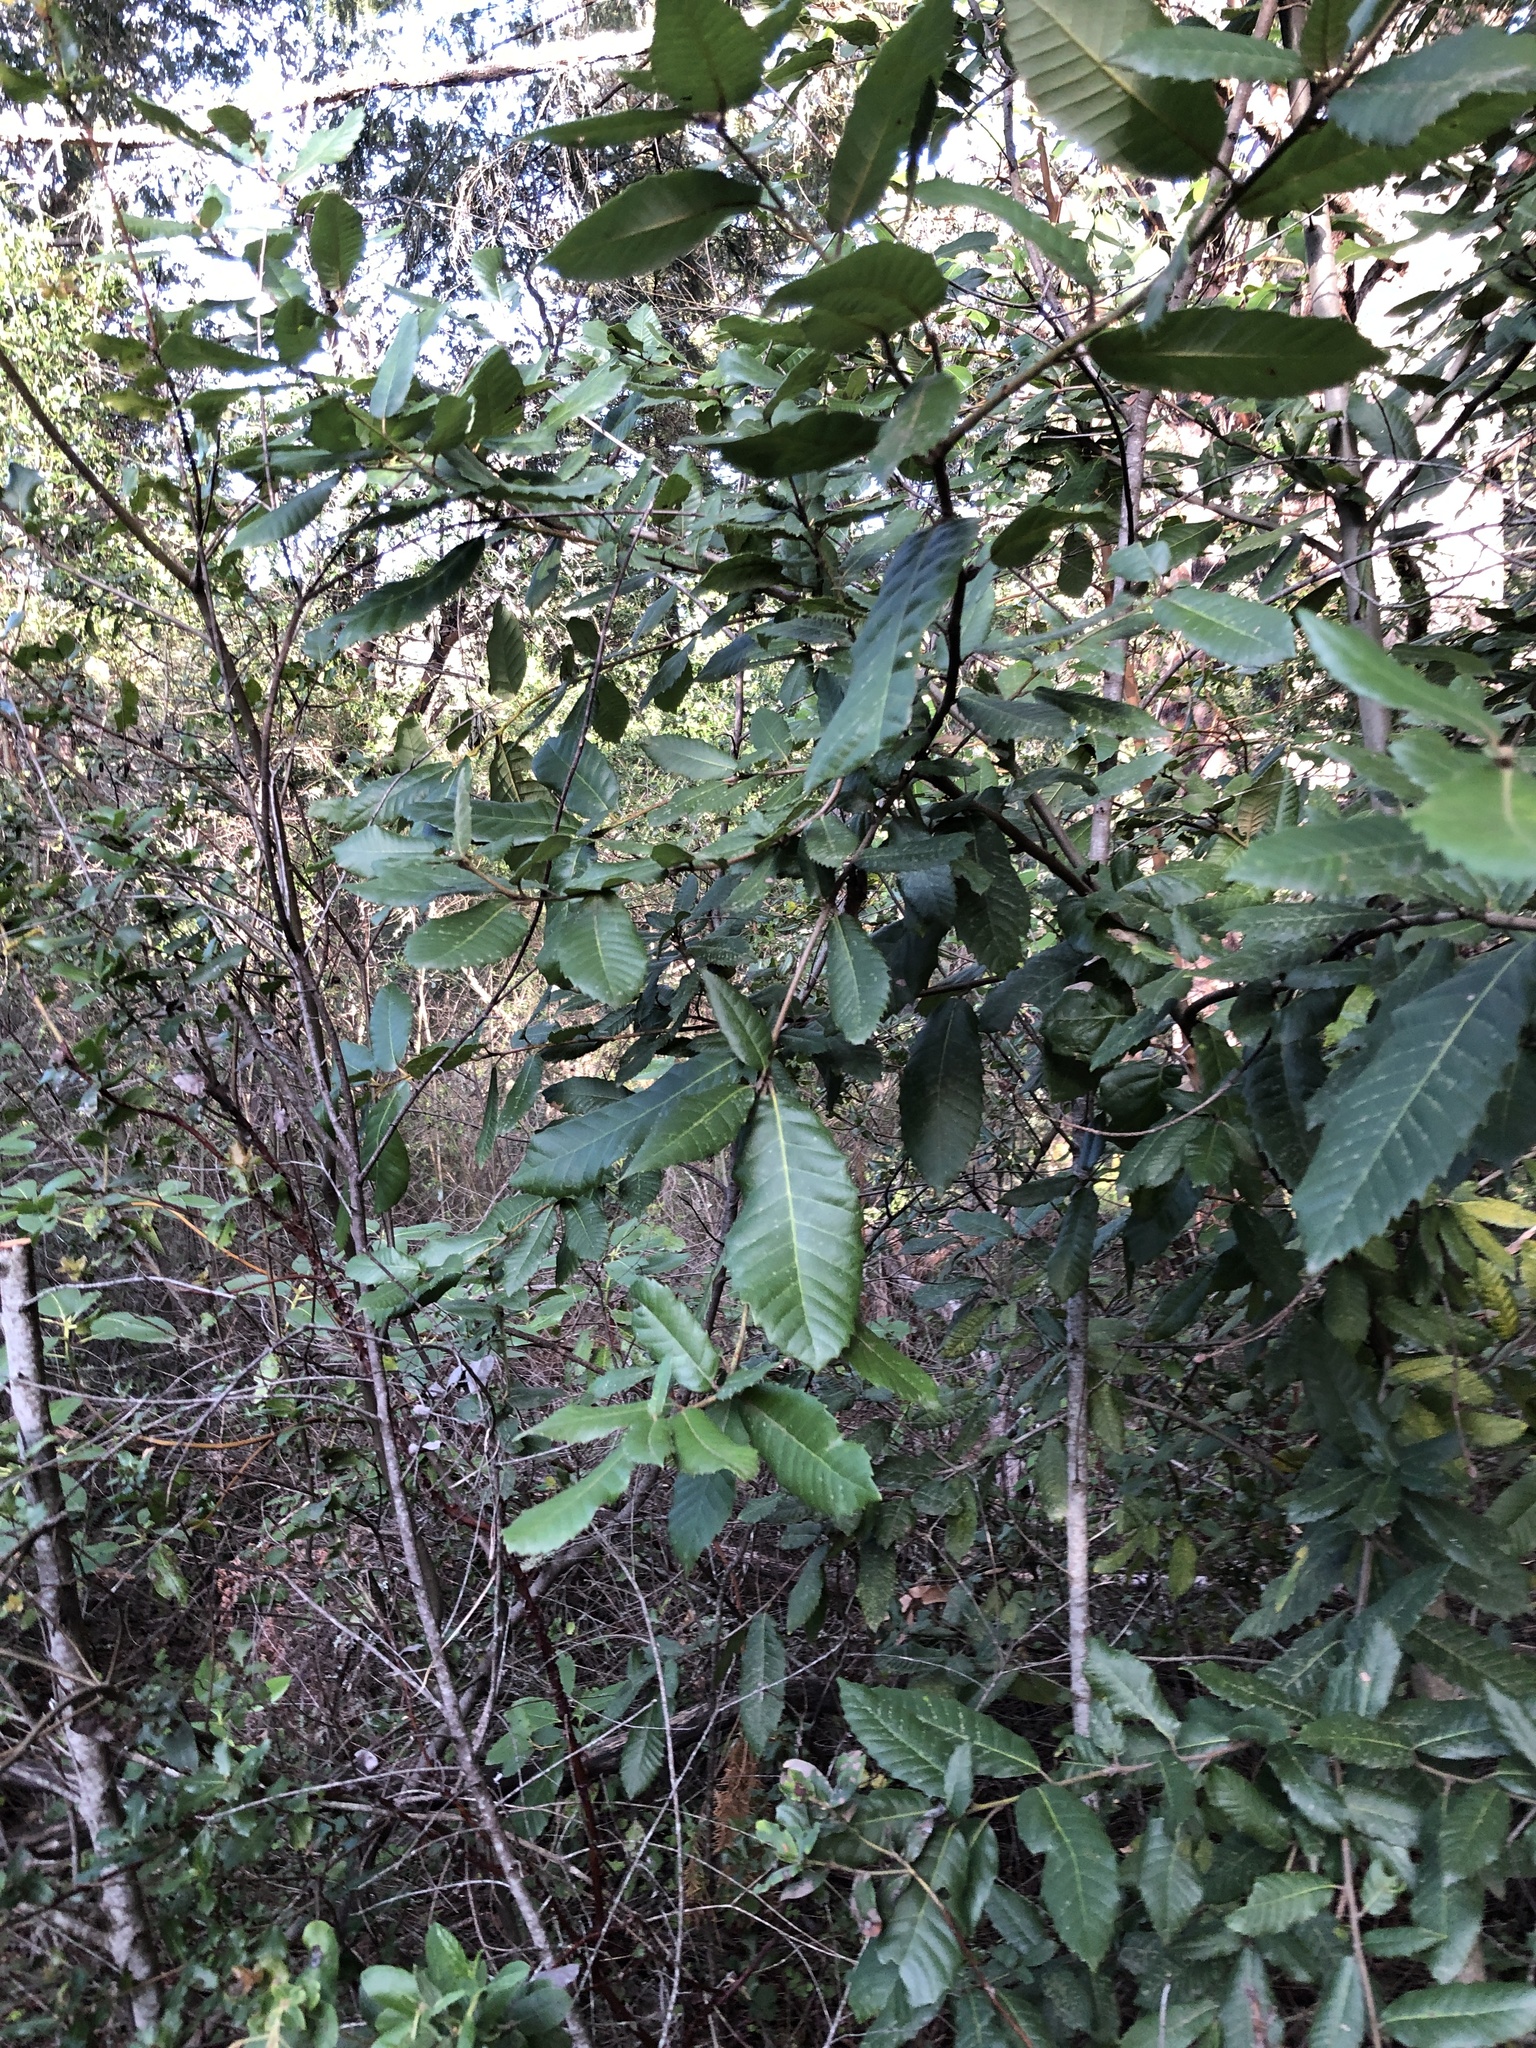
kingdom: Plantae
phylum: Tracheophyta
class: Magnoliopsida
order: Fagales
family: Fagaceae
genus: Notholithocarpus
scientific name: Notholithocarpus densiflorus
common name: Tan bark oak
